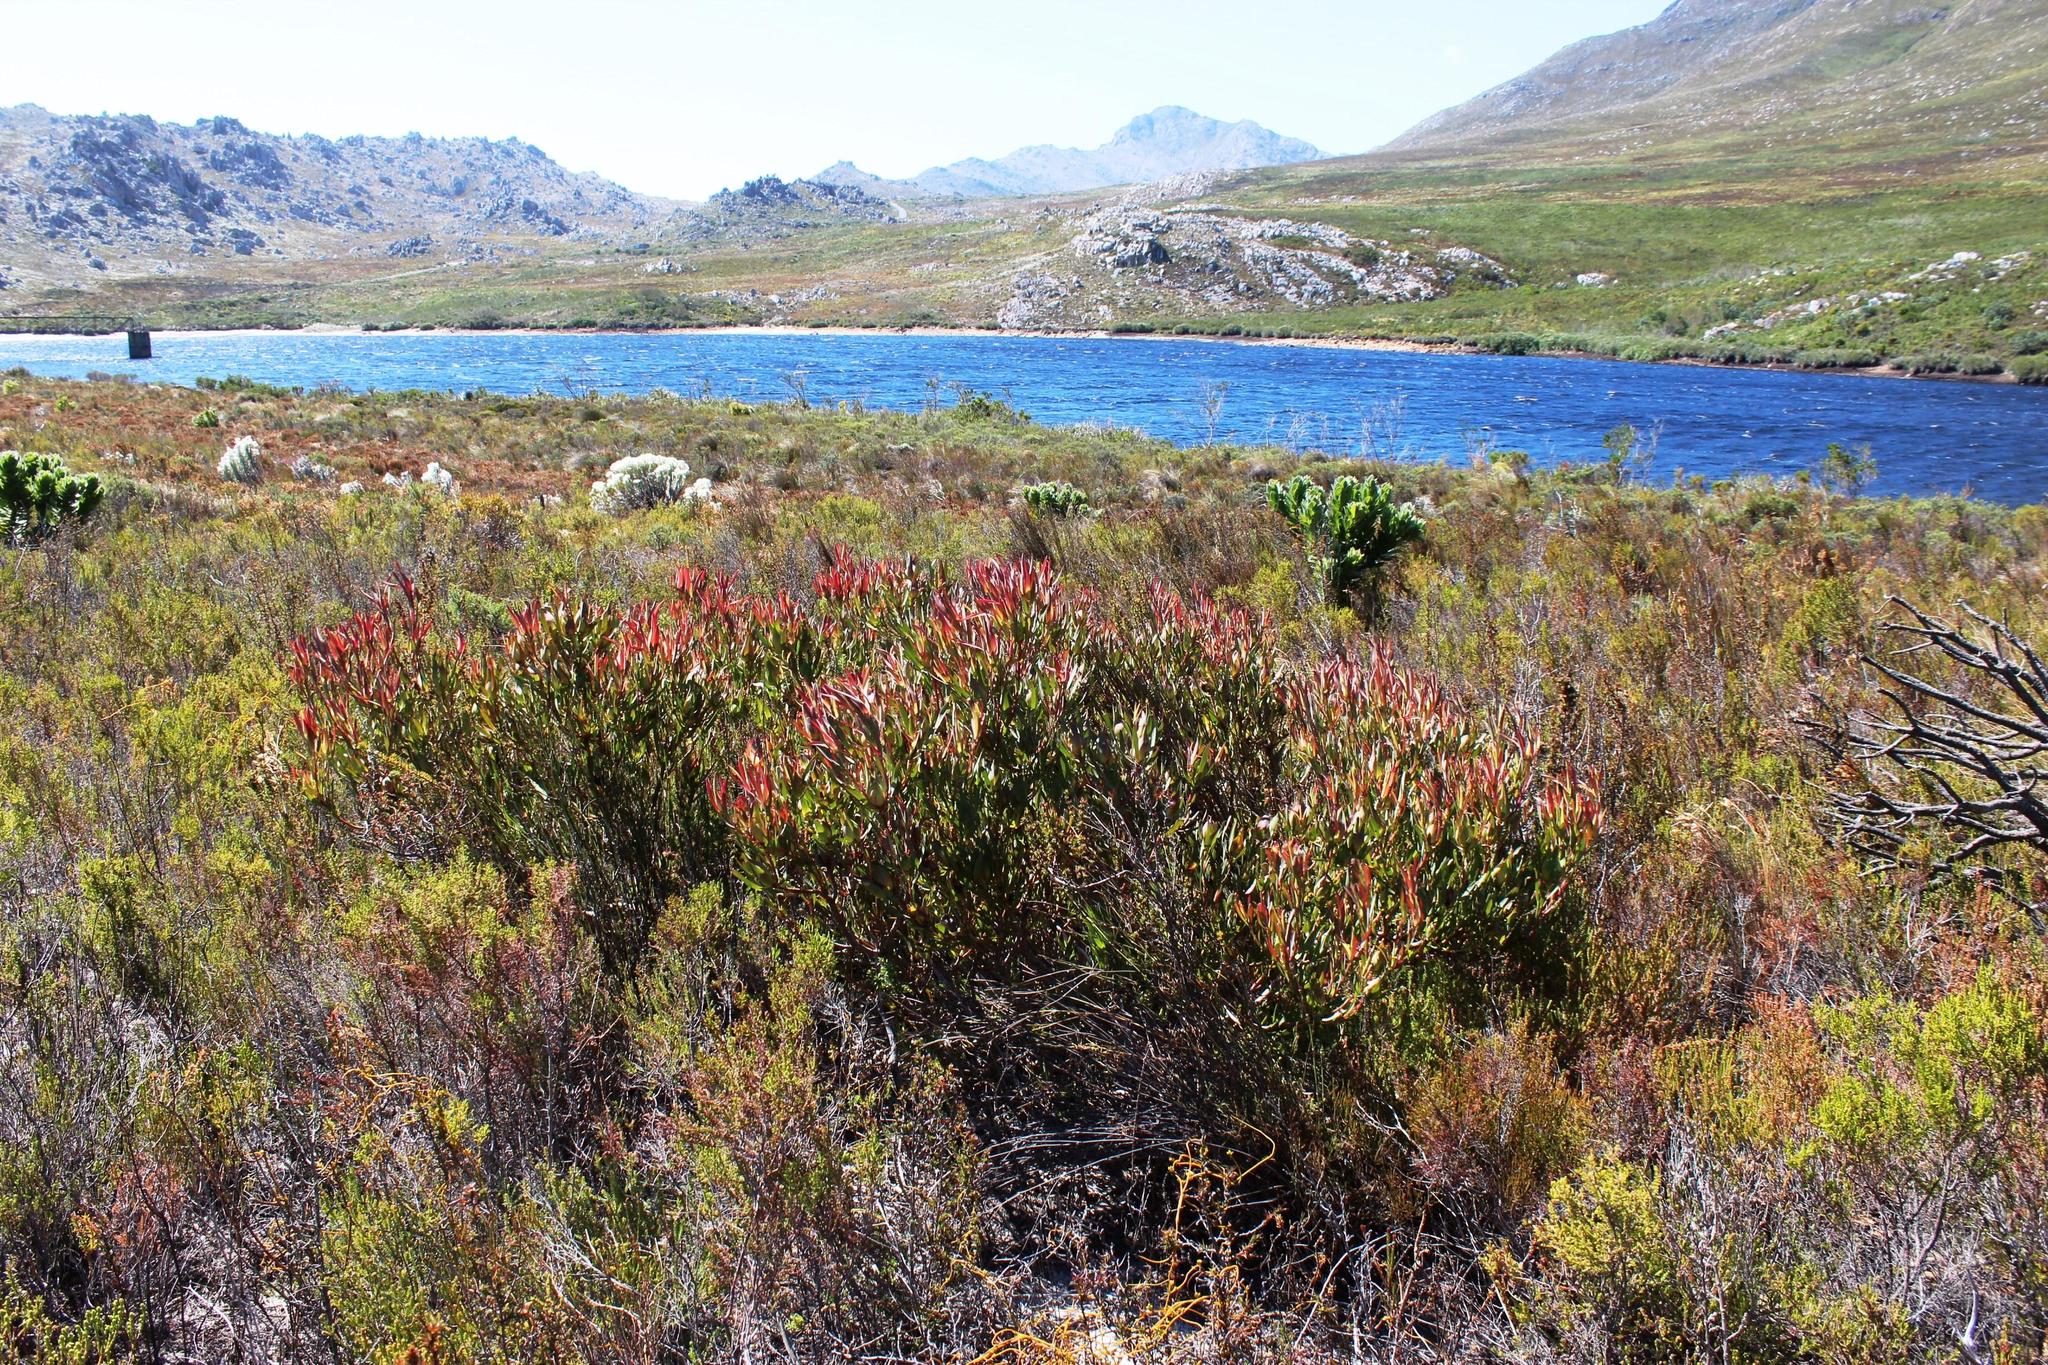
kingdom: Plantae
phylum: Tracheophyta
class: Magnoliopsida
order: Proteales
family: Proteaceae
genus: Leucadendron
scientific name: Leucadendron salignum
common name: Common sunshine conebush
